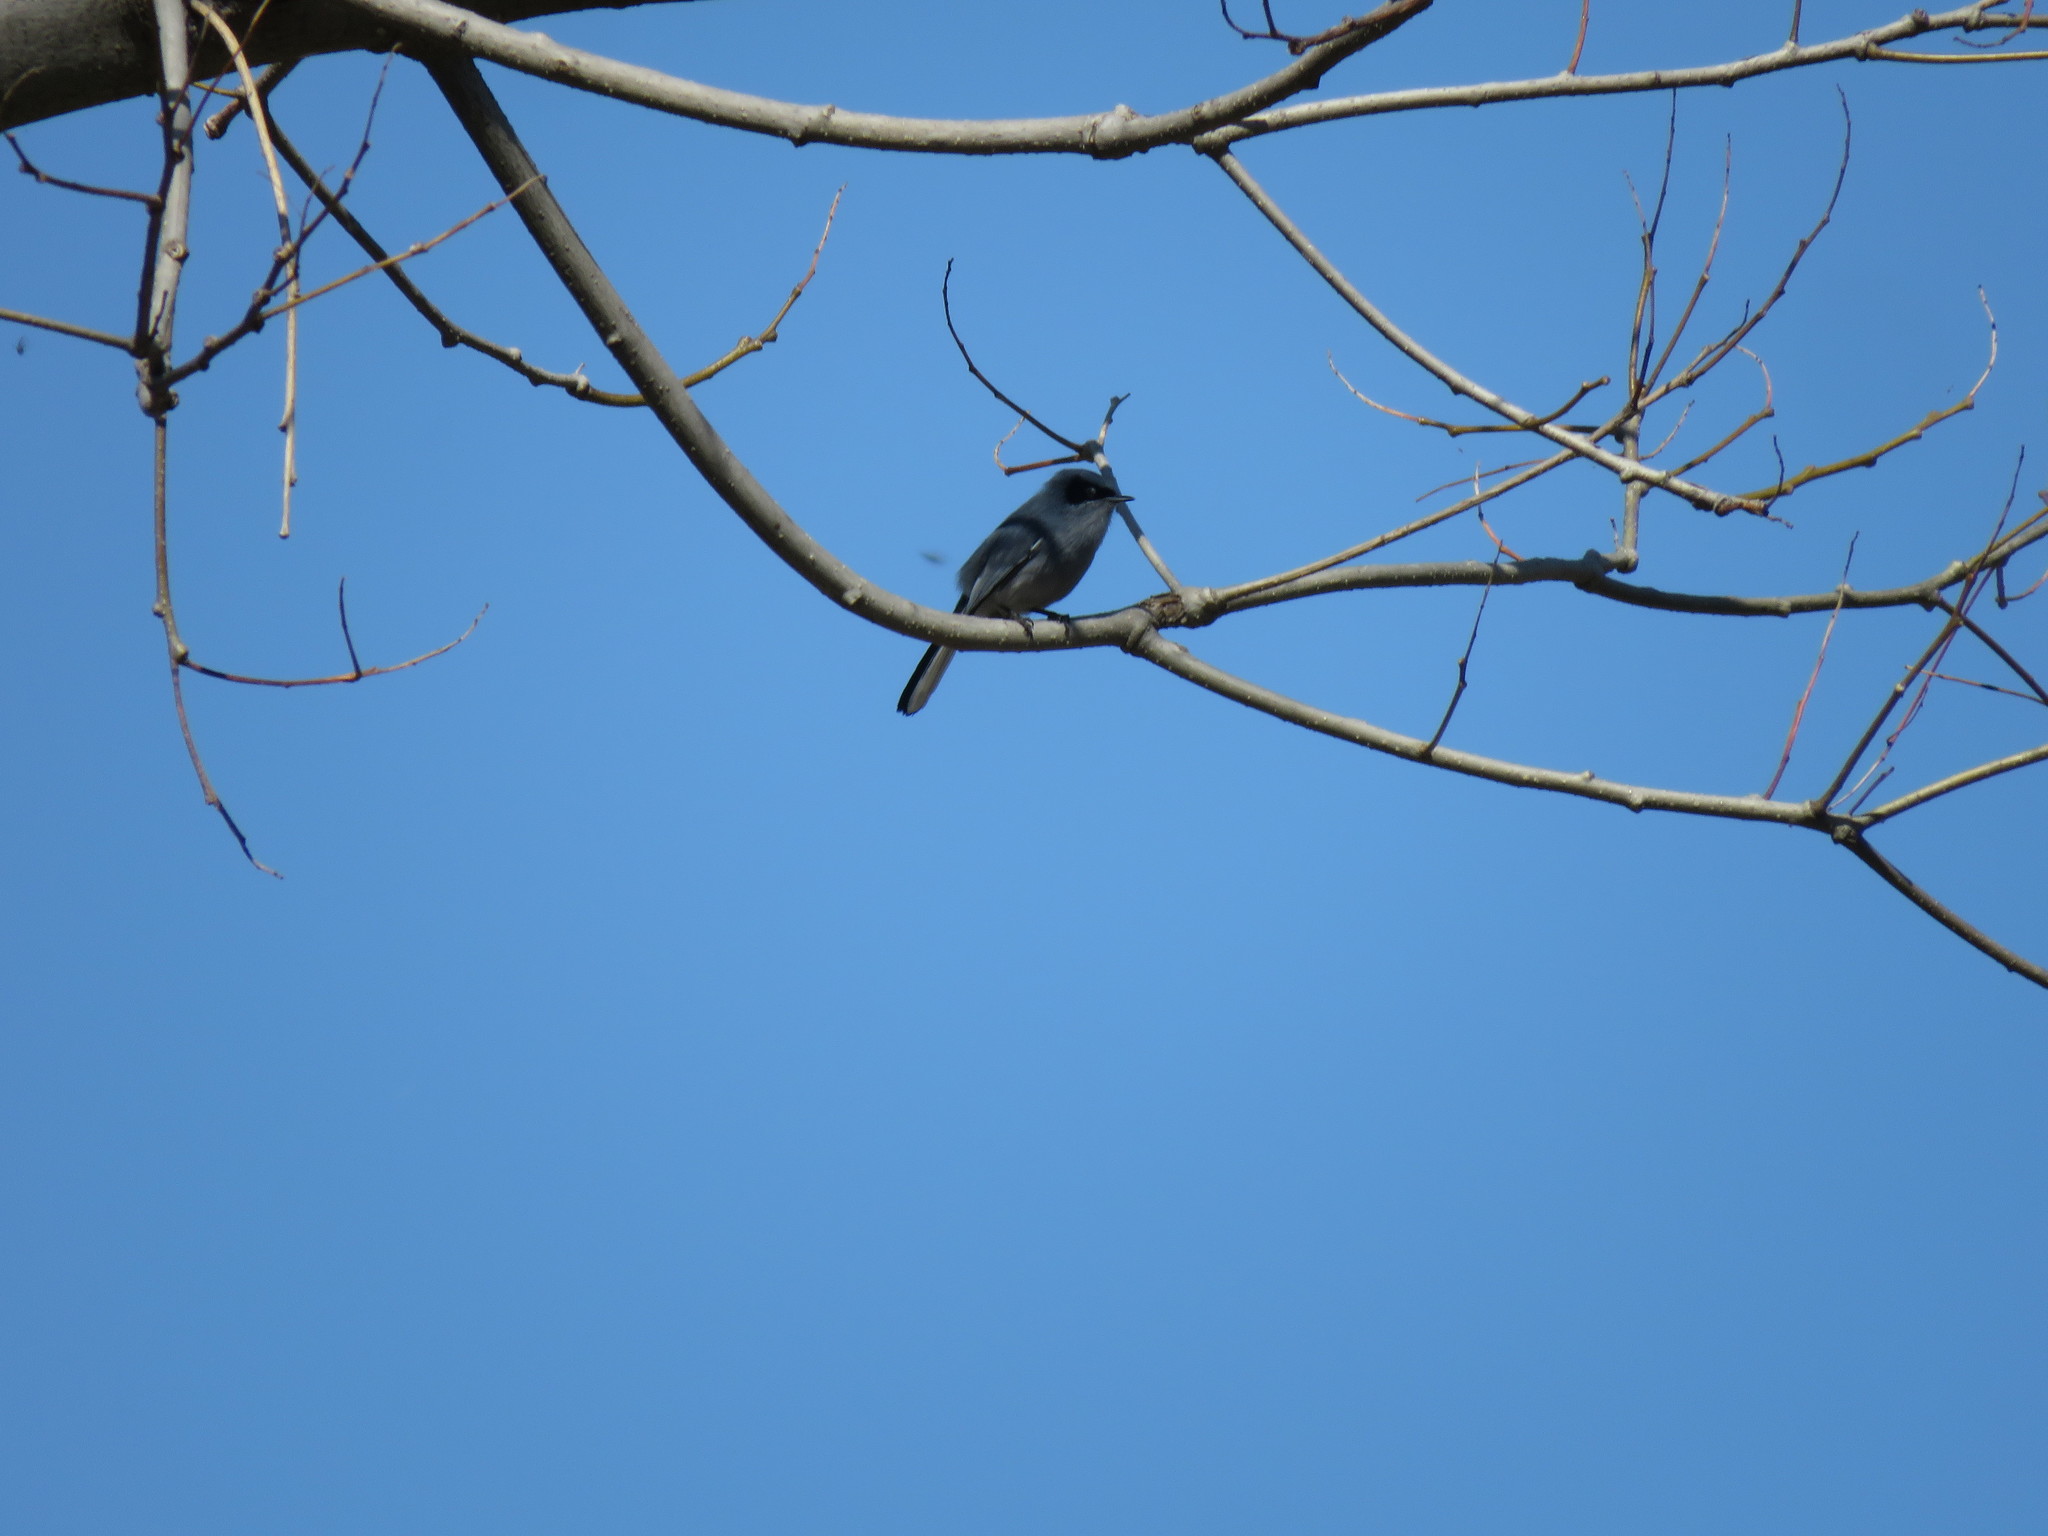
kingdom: Animalia
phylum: Chordata
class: Aves
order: Passeriformes
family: Polioptilidae
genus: Polioptila
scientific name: Polioptila dumicola
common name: Masked gnatcatcher
